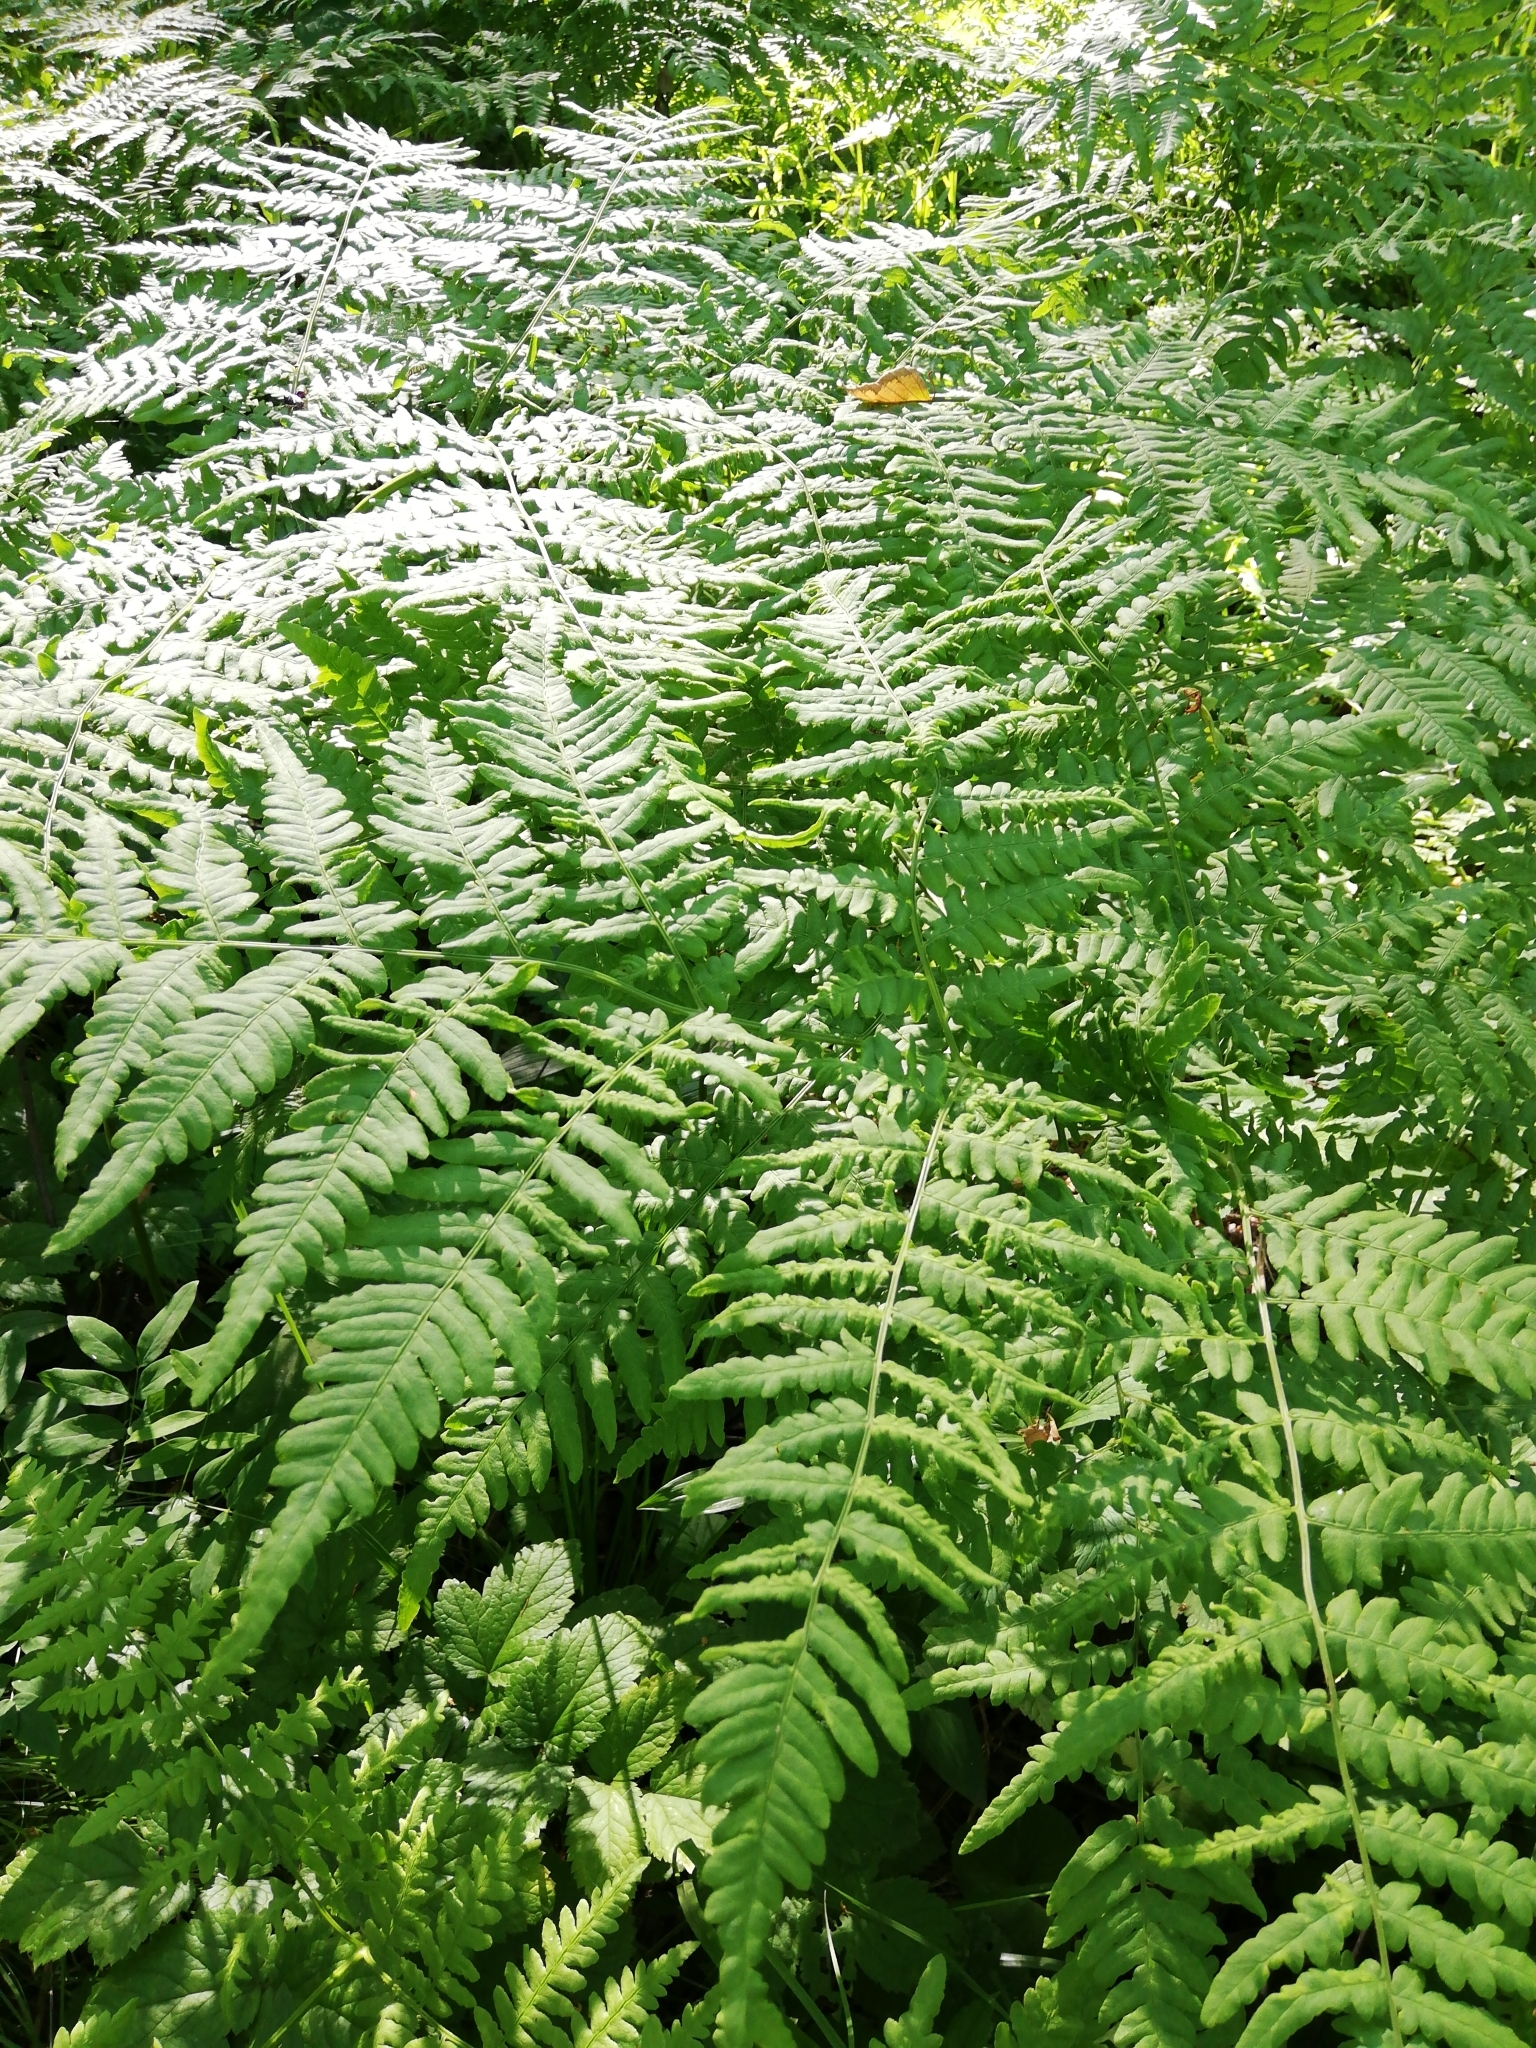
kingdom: Plantae
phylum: Tracheophyta
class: Polypodiopsida
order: Polypodiales
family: Dennstaedtiaceae
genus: Pteridium
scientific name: Pteridium aquilinum
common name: Bracken
